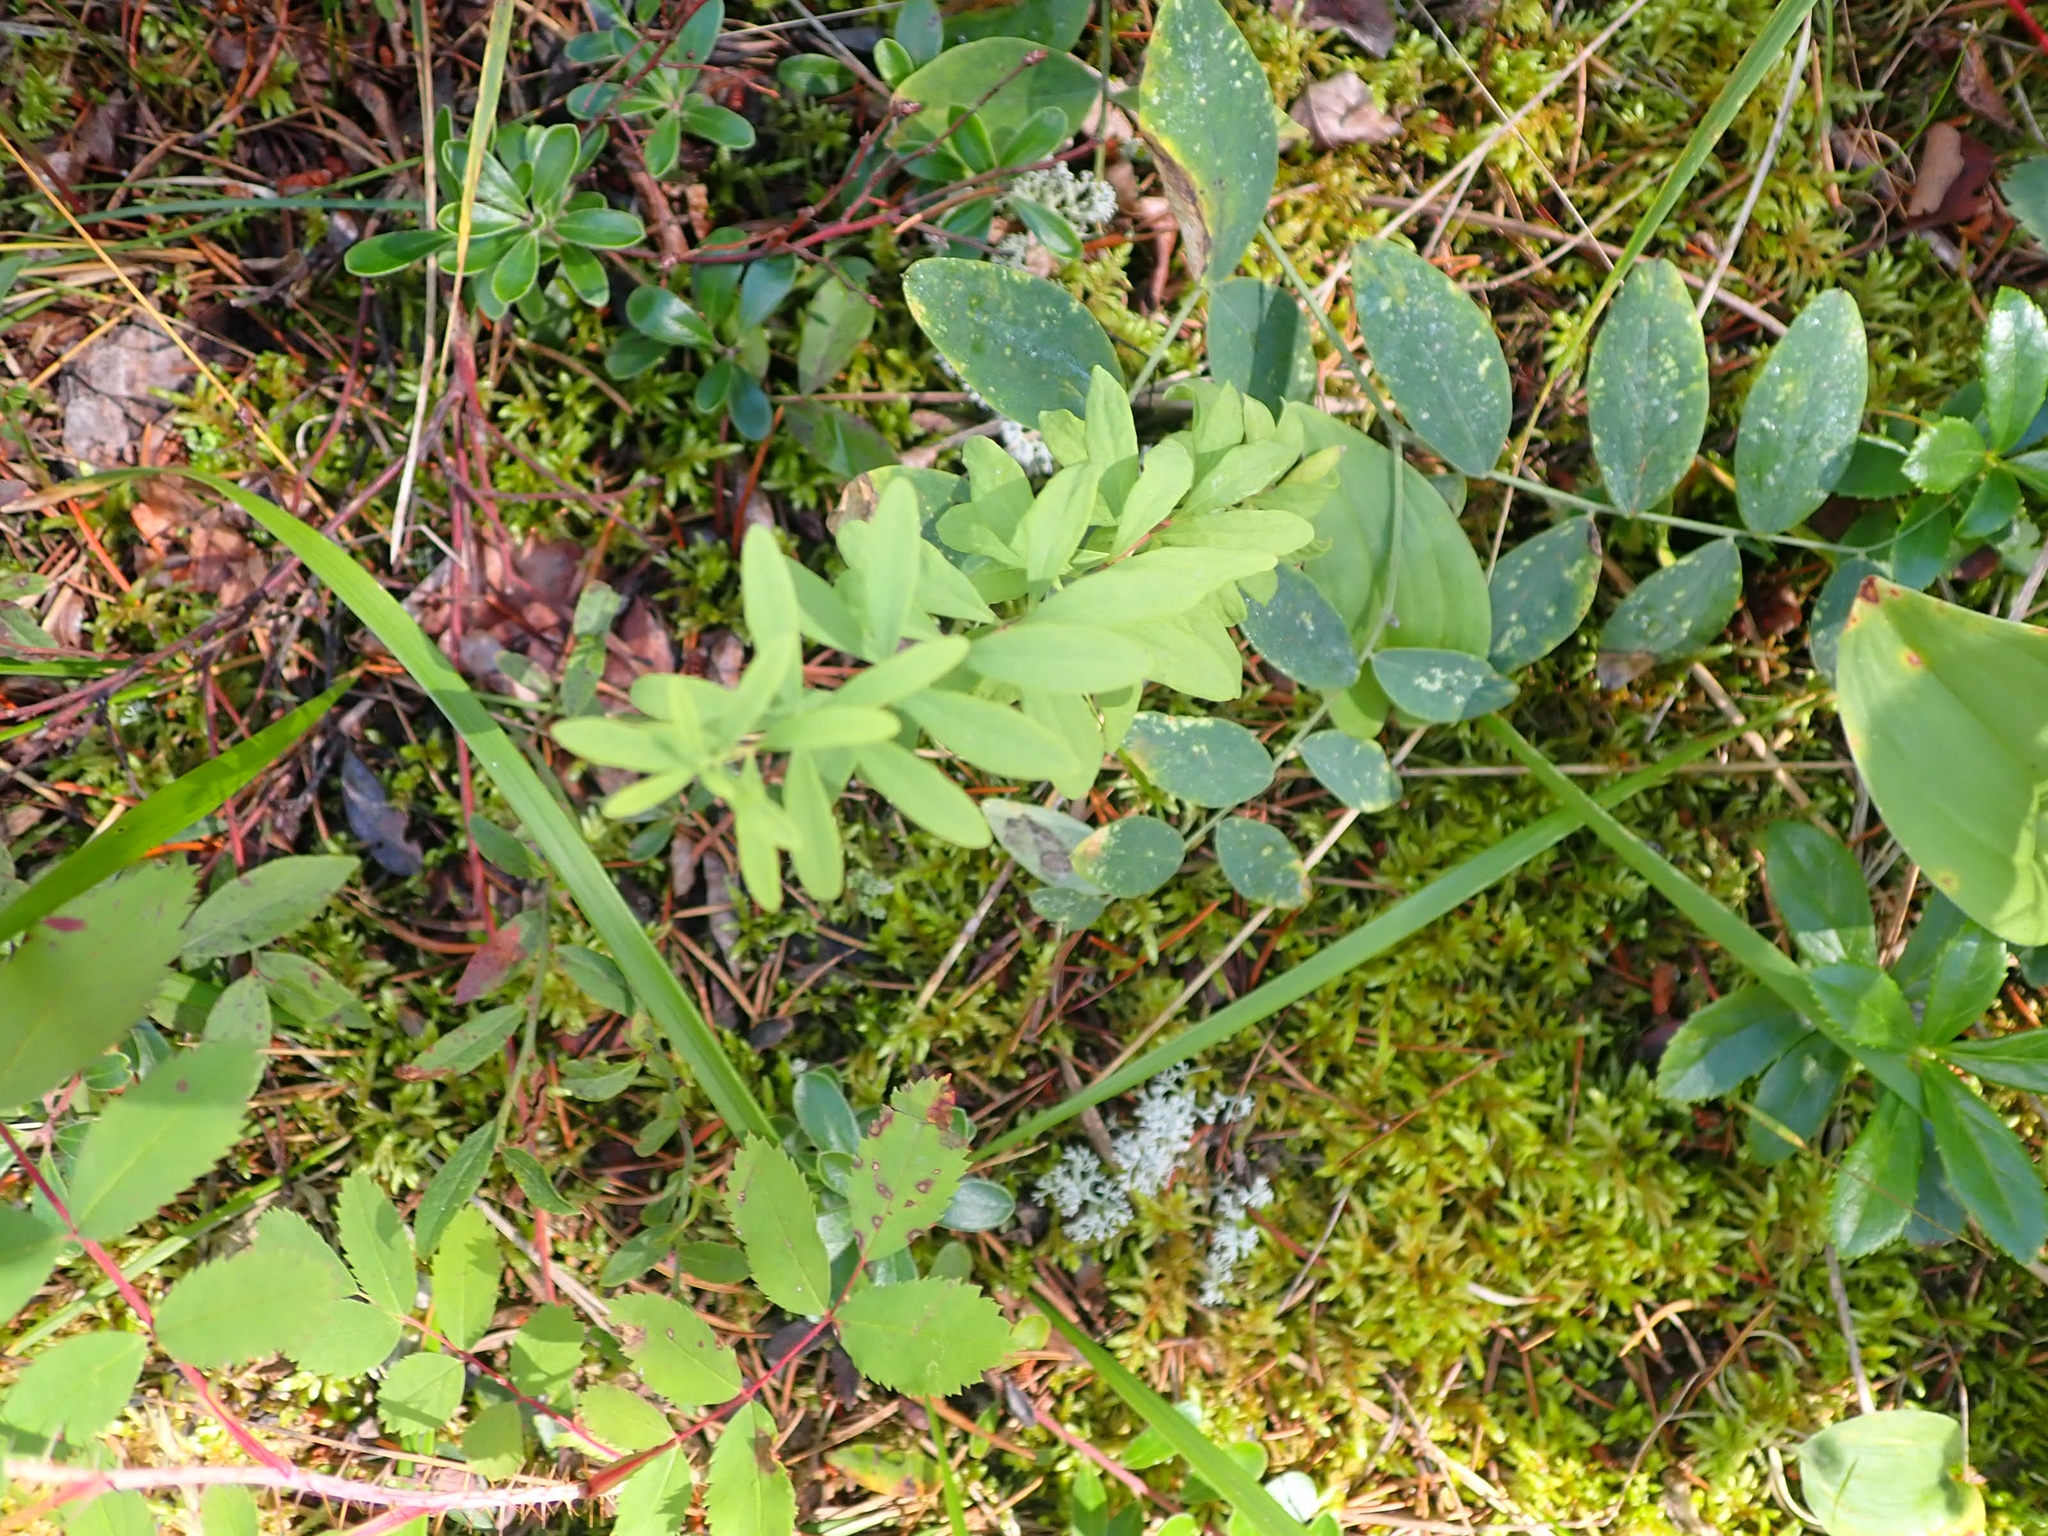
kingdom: Plantae
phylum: Tracheophyta
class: Magnoliopsida
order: Santalales
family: Comandraceae
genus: Comandra
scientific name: Comandra umbellata
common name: Bastard toadflax
